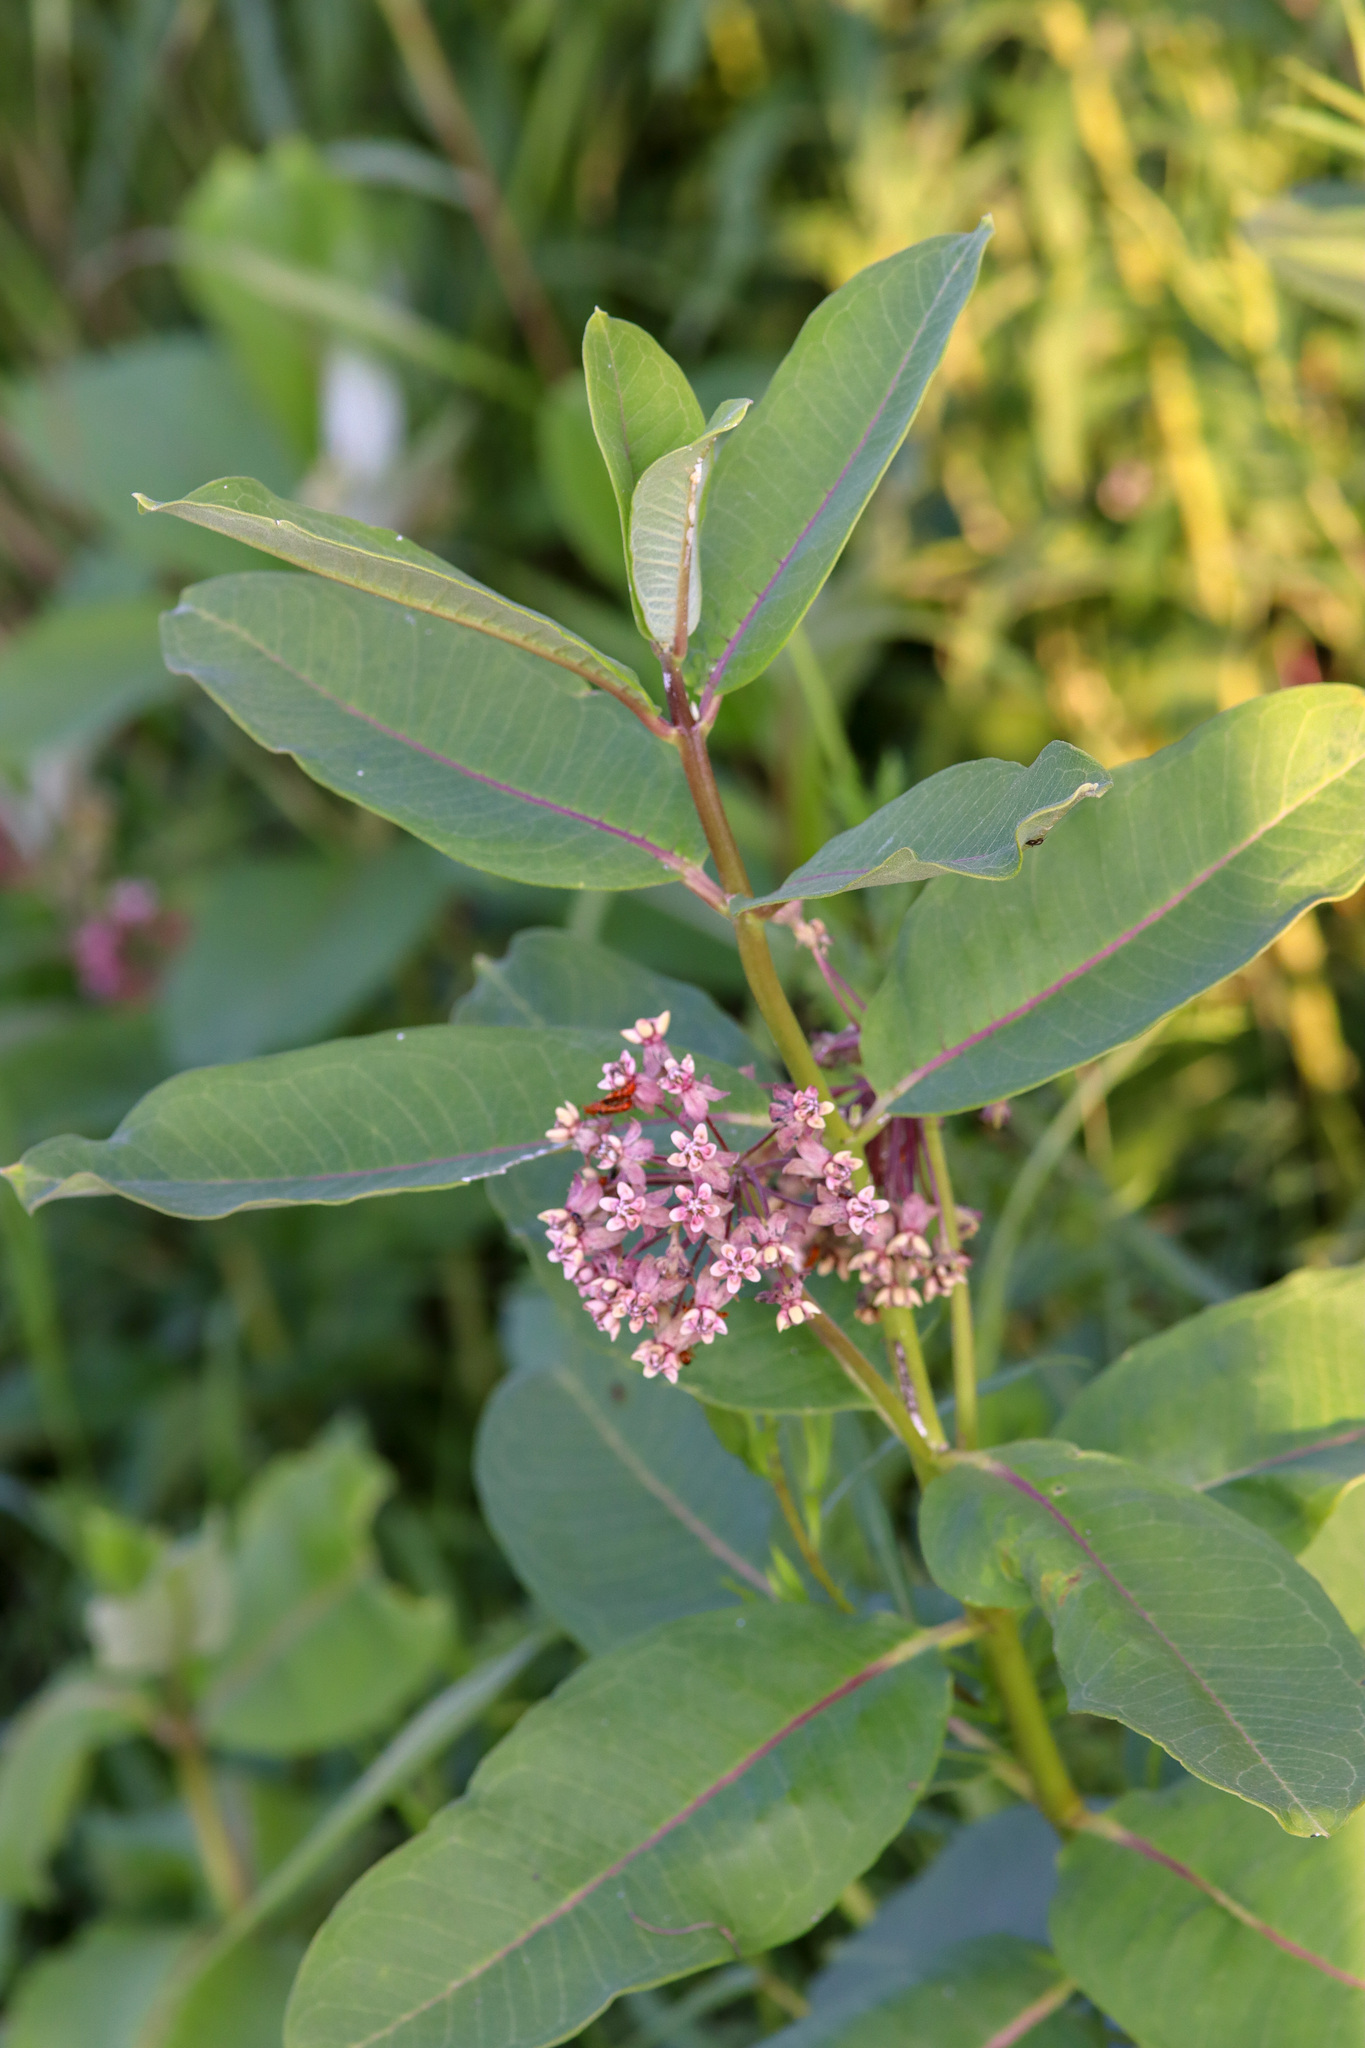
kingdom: Plantae
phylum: Tracheophyta
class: Magnoliopsida
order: Gentianales
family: Apocynaceae
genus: Asclepias
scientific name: Asclepias syriaca
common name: Common milkweed
